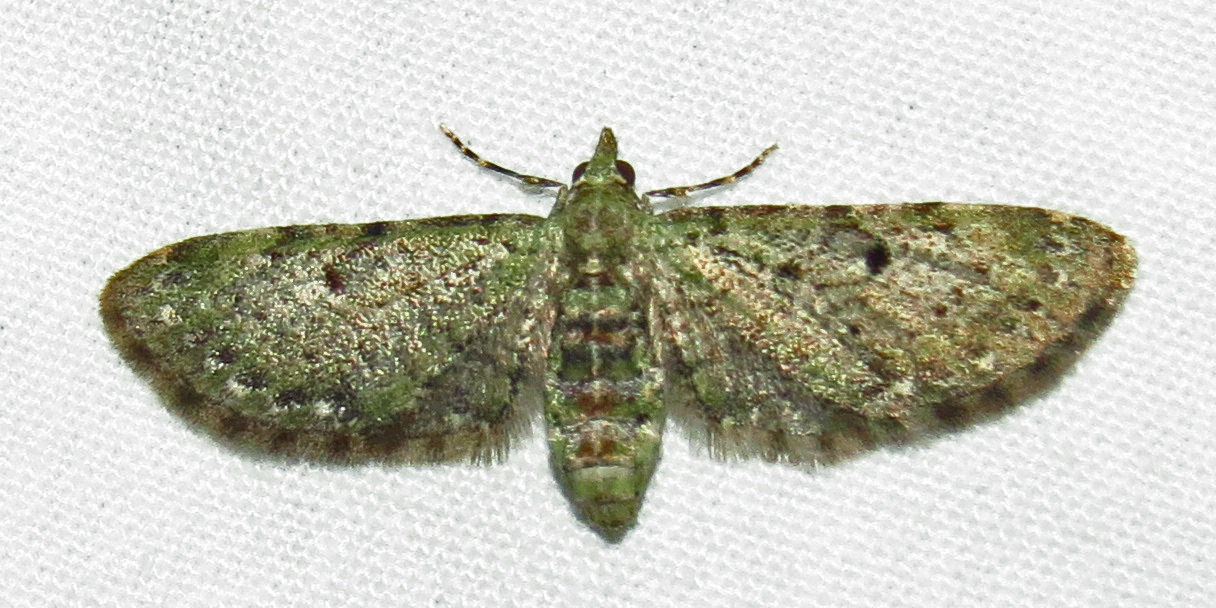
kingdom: Animalia
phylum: Arthropoda
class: Insecta
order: Lepidoptera
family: Geometridae
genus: Eupithecia
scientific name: Eupithecia miserulata
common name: Common eupithecia
